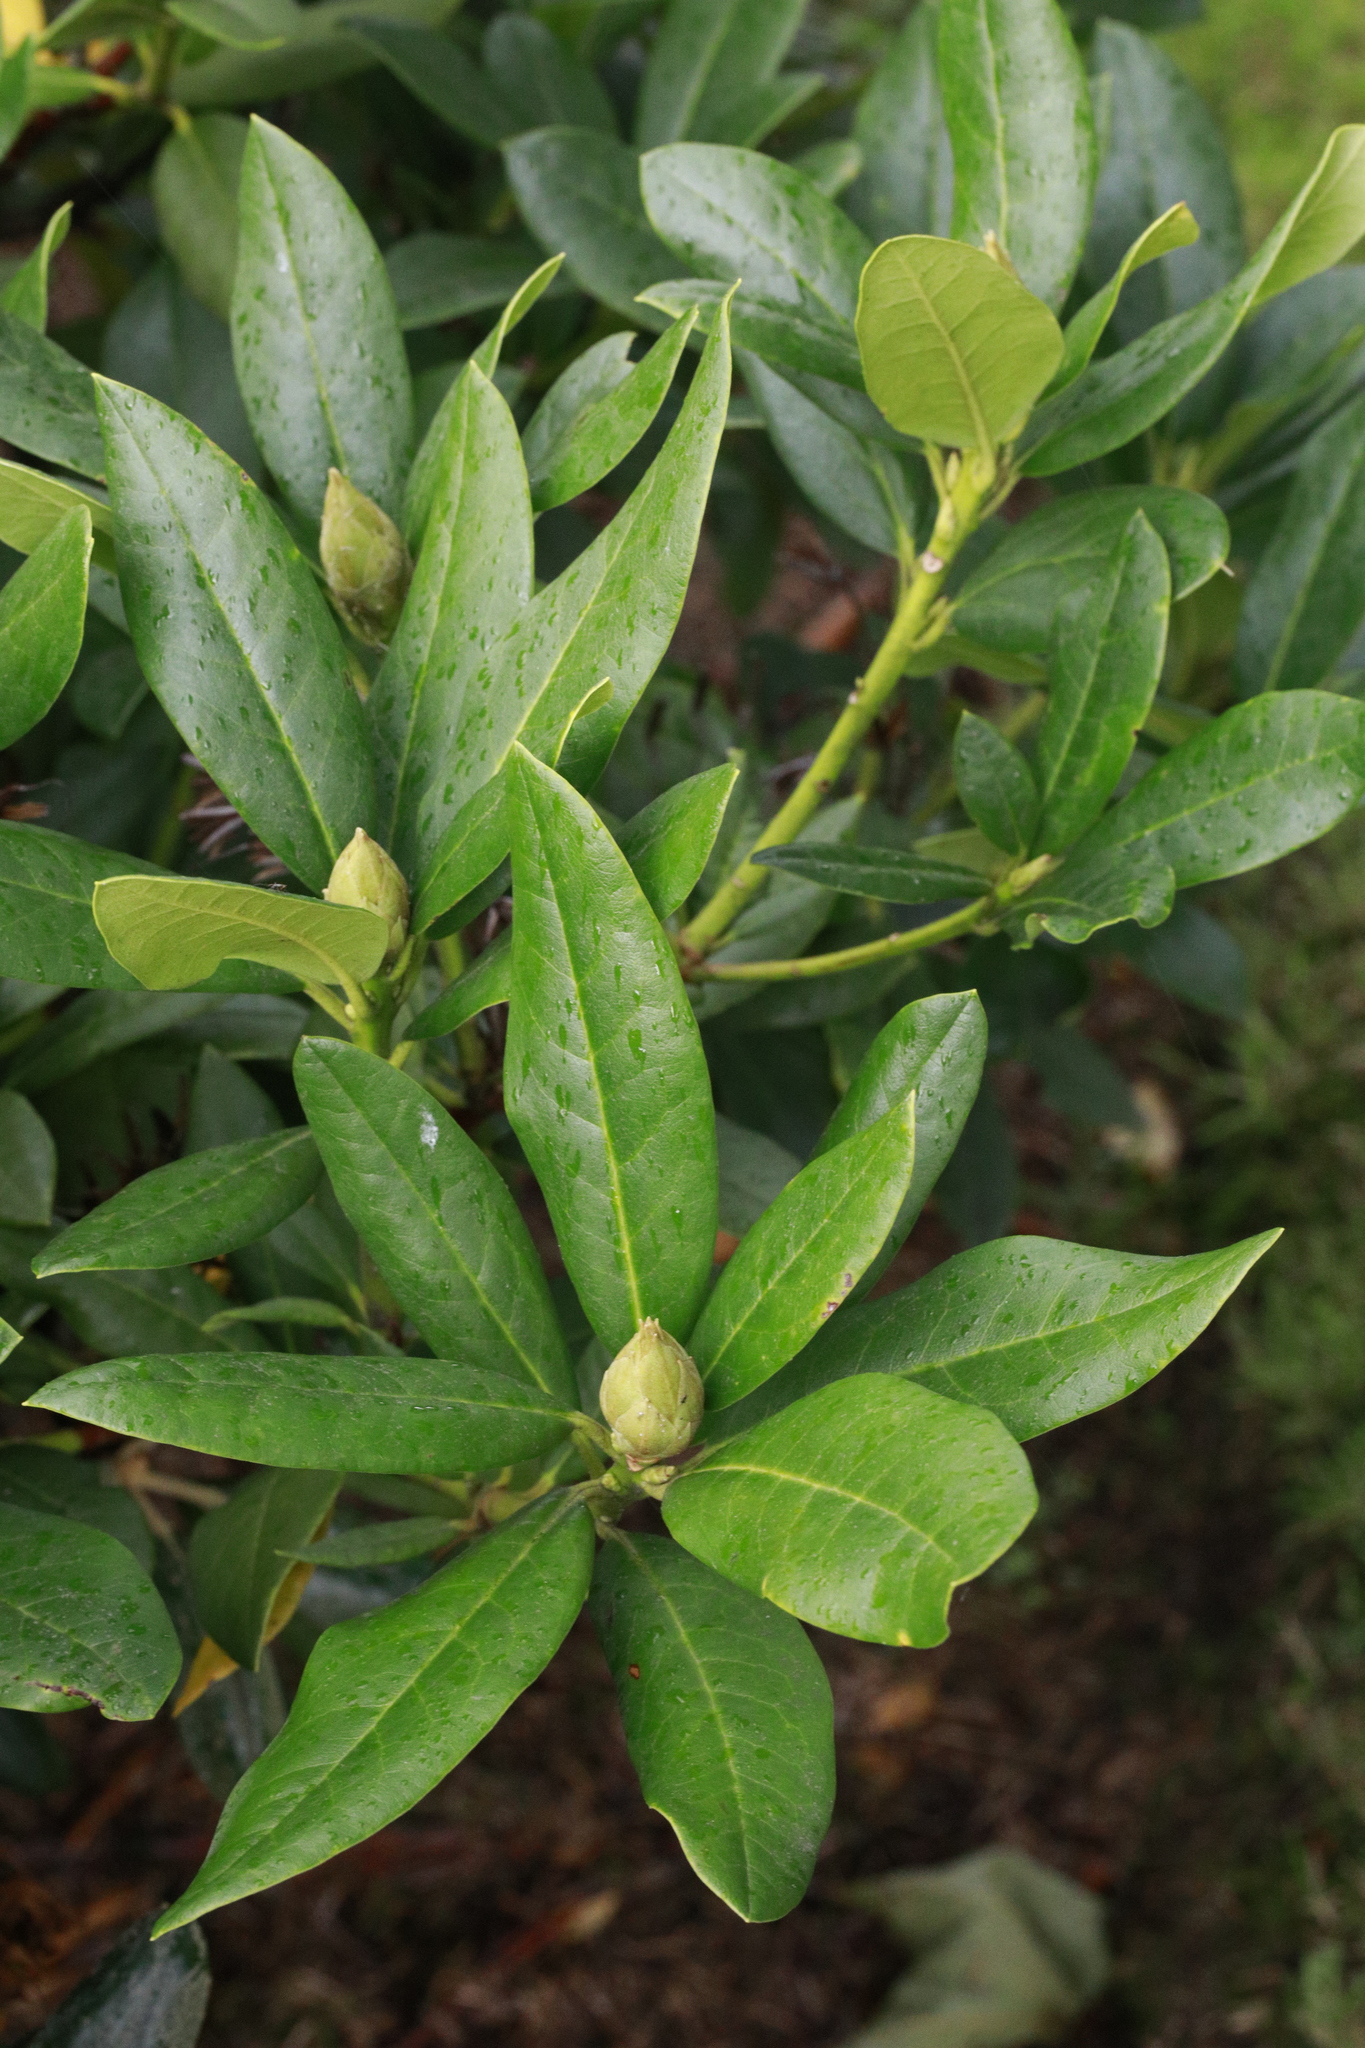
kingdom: Plantae
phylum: Tracheophyta
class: Magnoliopsida
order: Ericales
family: Ericaceae
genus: Rhododendron
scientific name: Rhododendron ponticum
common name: Rhododendron
